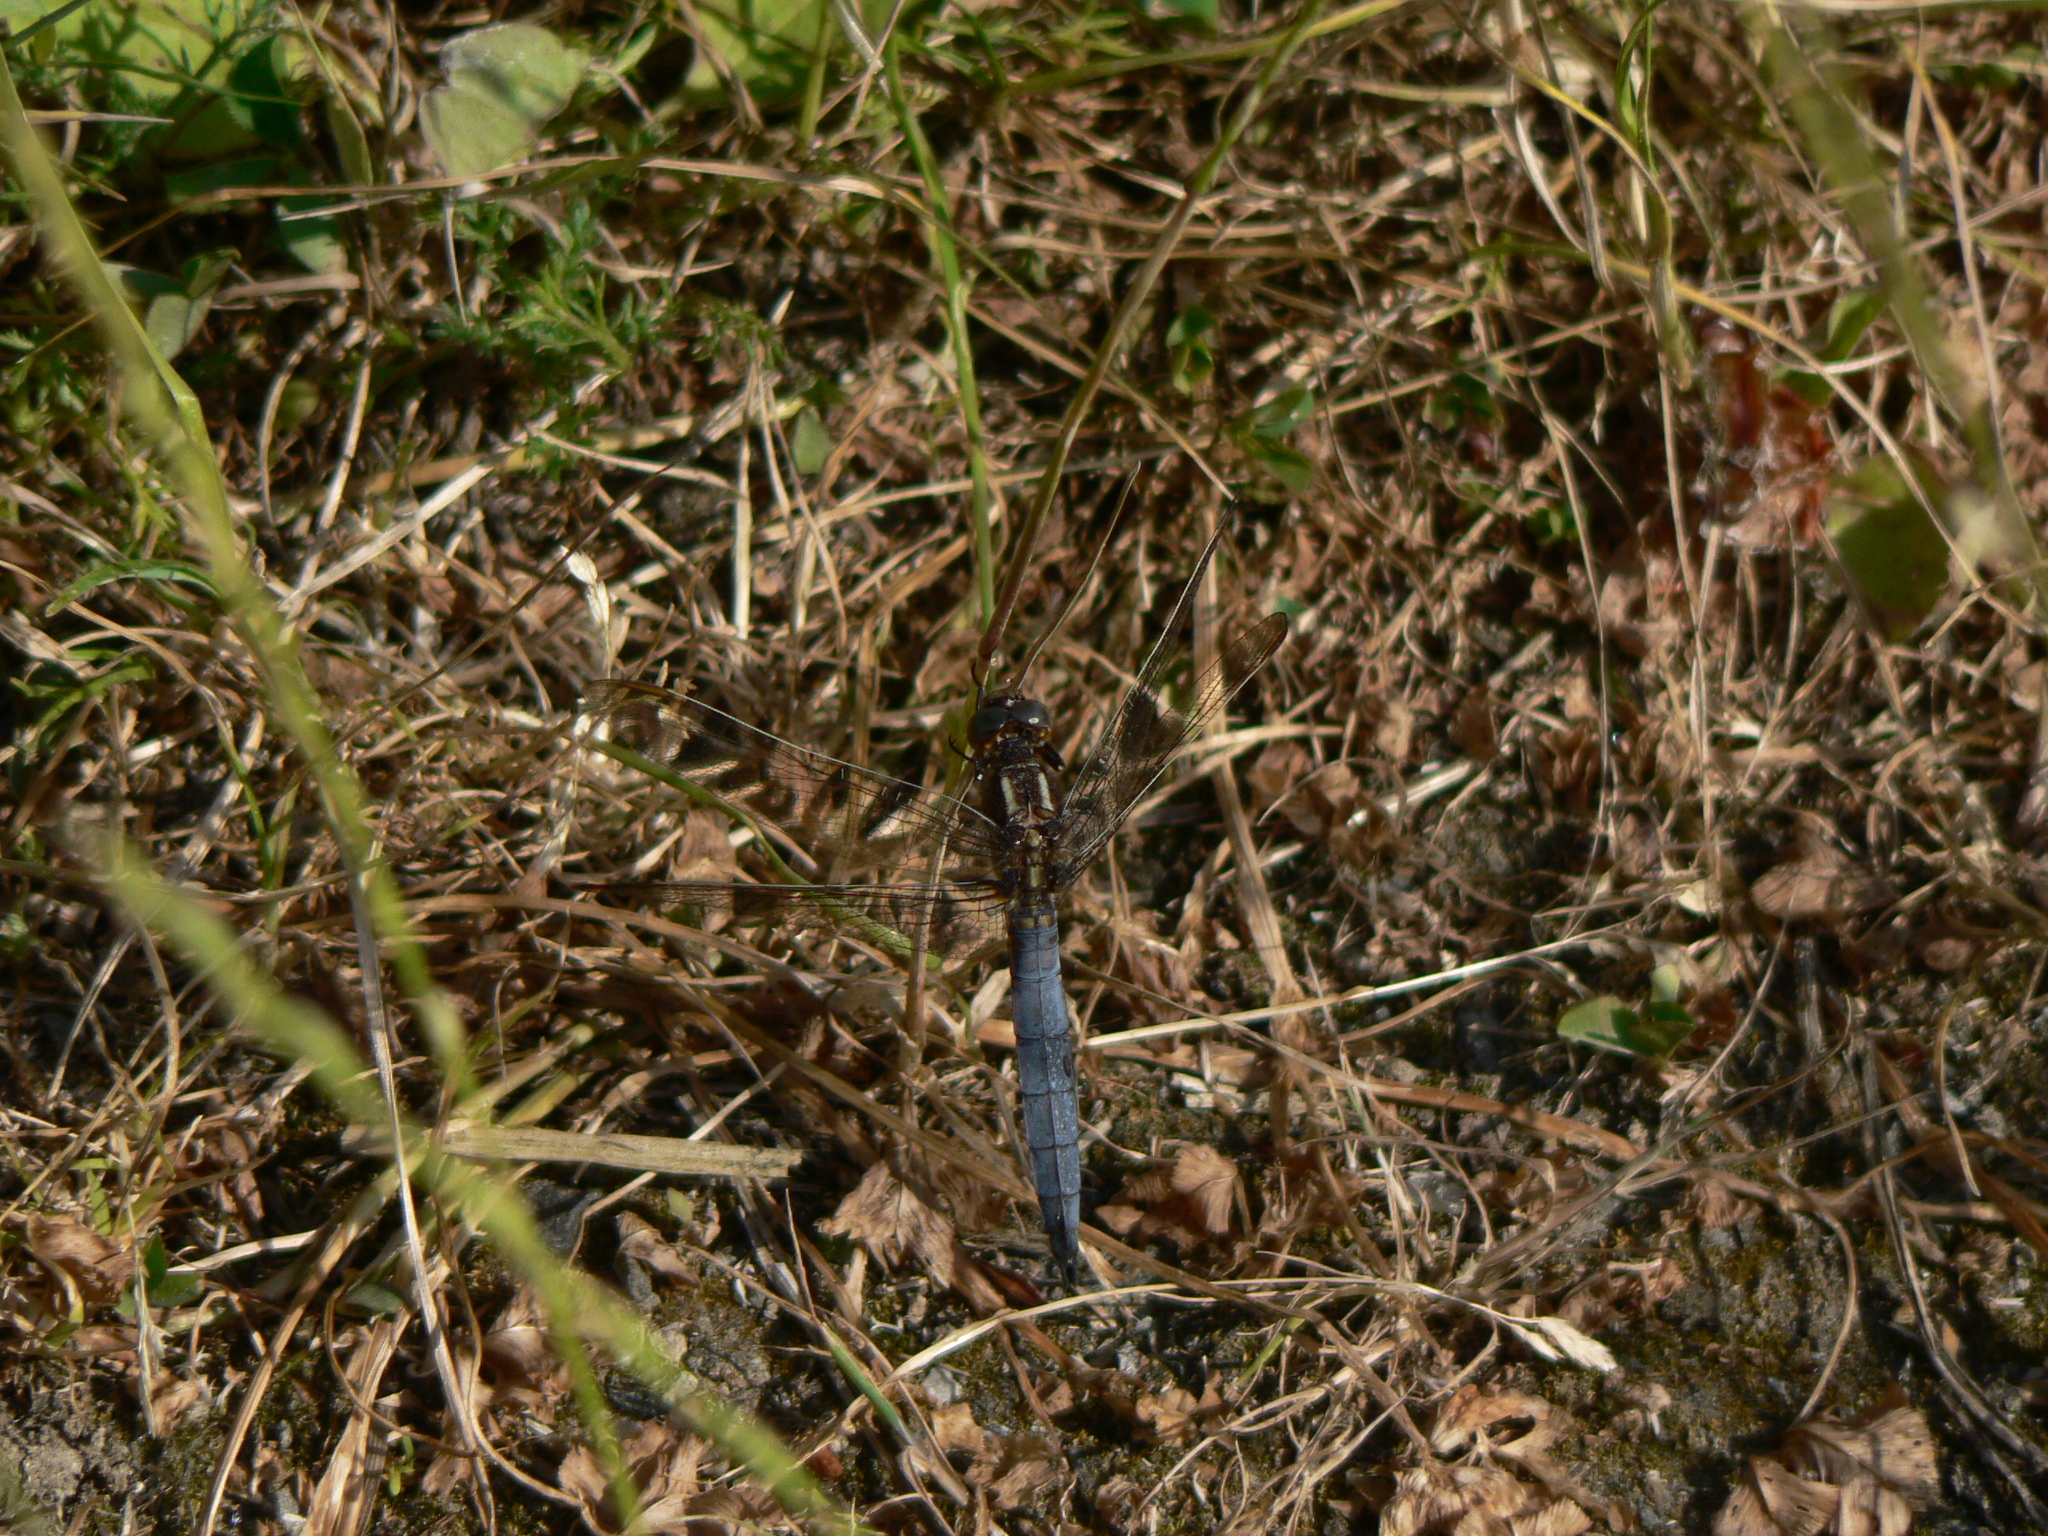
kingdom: Animalia
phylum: Arthropoda
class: Insecta
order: Odonata
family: Libellulidae
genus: Orthetrum
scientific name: Orthetrum coerulescens
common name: Keeled skimmer
